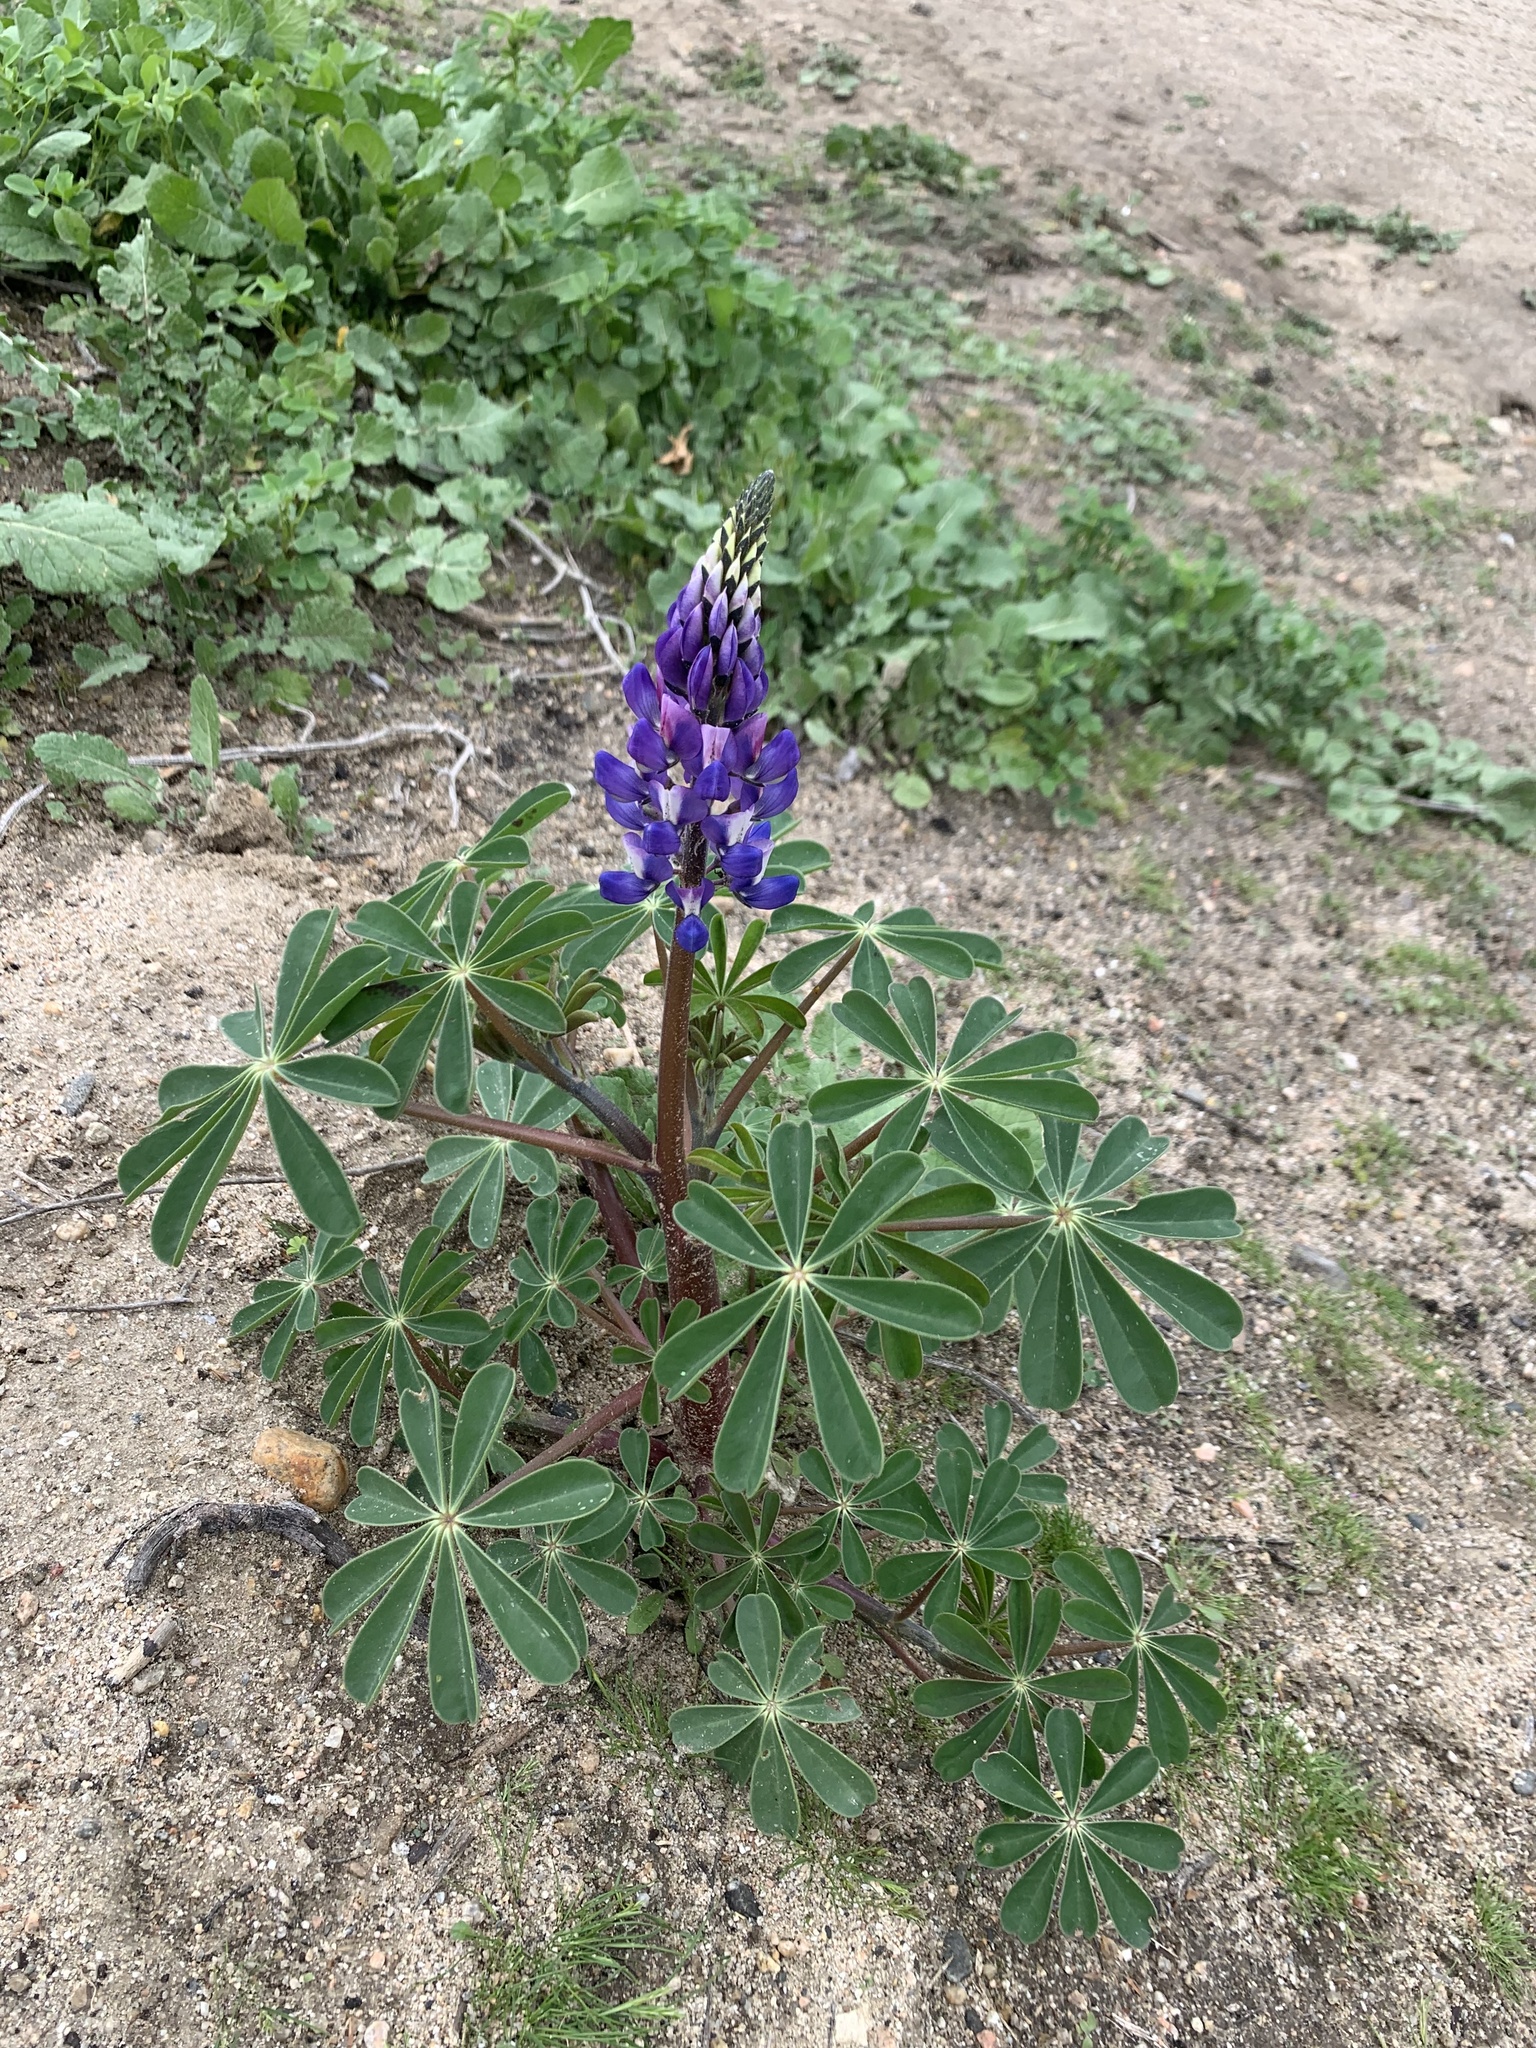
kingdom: Plantae
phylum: Tracheophyta
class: Magnoliopsida
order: Fabales
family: Fabaceae
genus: Lupinus
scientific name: Lupinus succulentus
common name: Arroyo lupine
